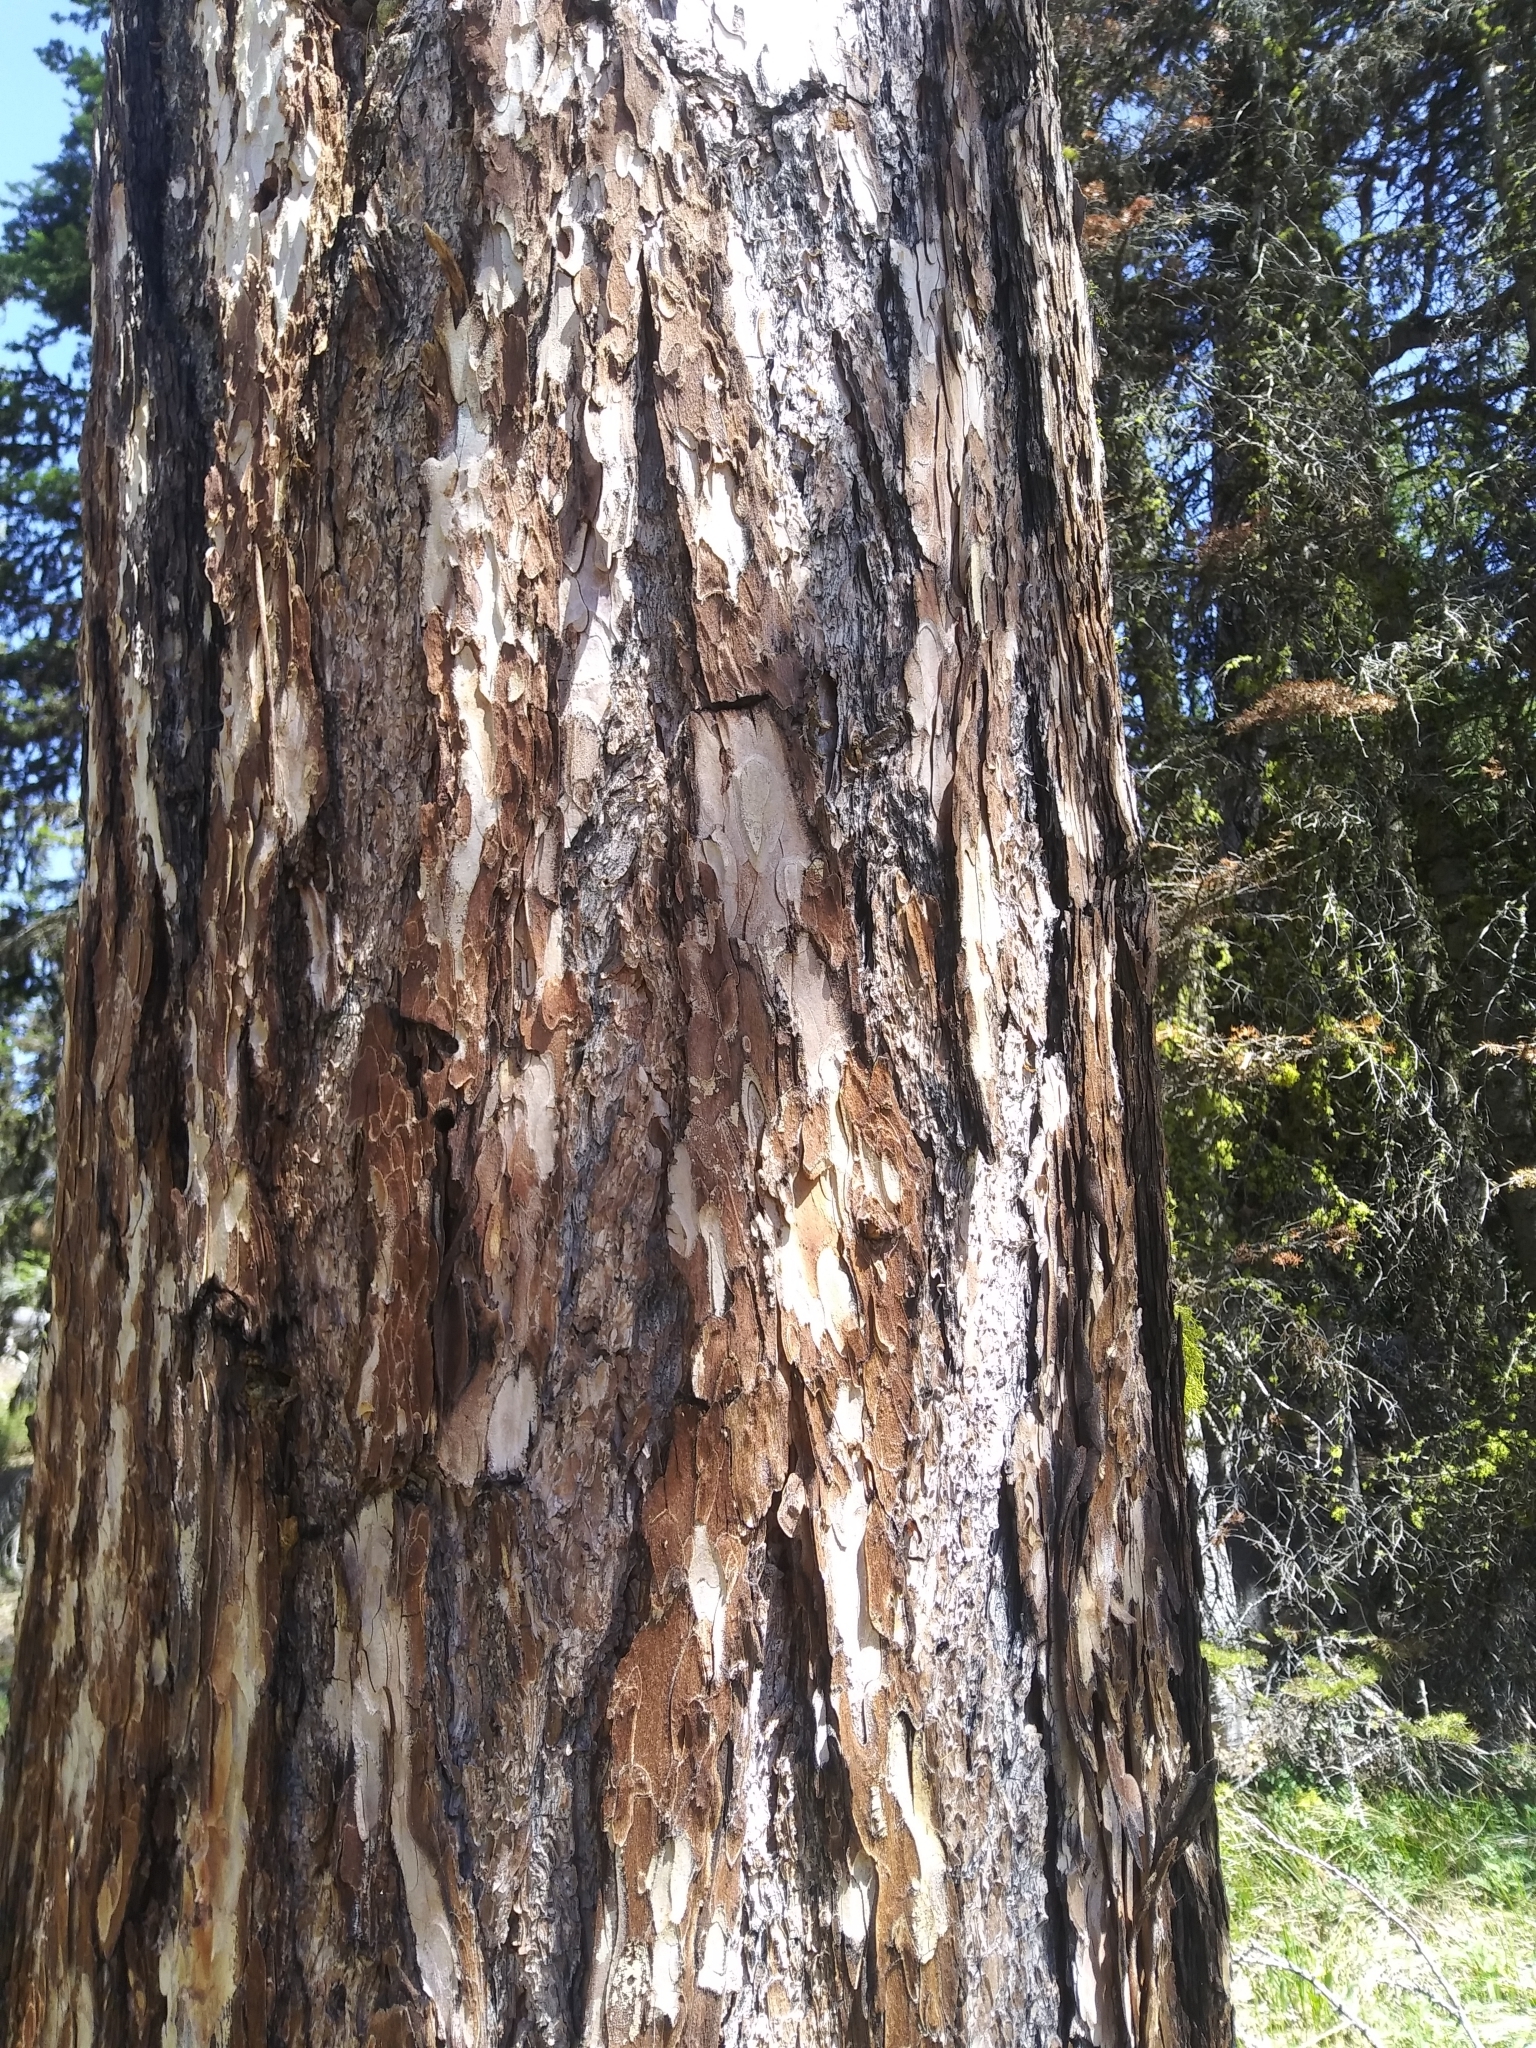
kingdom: Plantae
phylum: Tracheophyta
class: Pinopsida
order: Pinales
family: Pinaceae
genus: Larix
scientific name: Larix occidentalis
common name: Western larch
